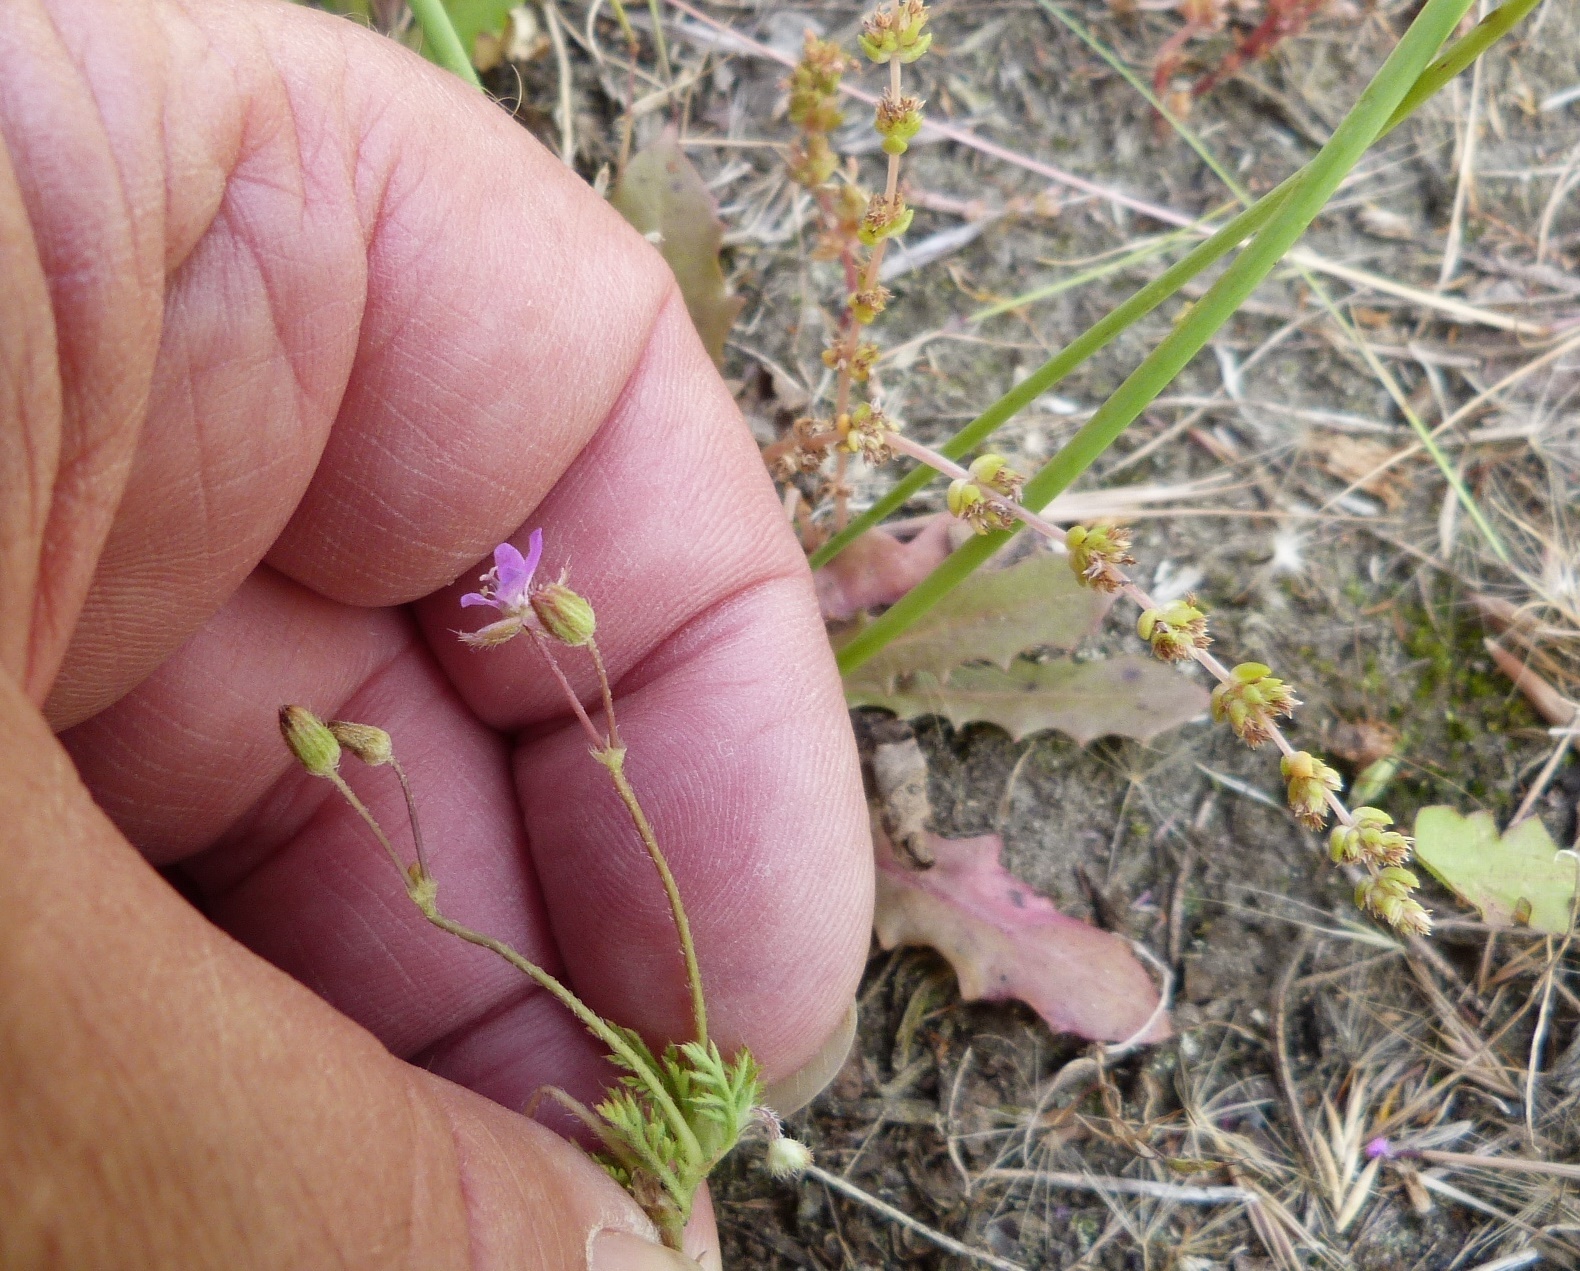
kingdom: Plantae
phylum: Tracheophyta
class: Magnoliopsida
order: Geraniales
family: Geraniaceae
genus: Erodium
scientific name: Erodium cicutarium
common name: Common stork's-bill
